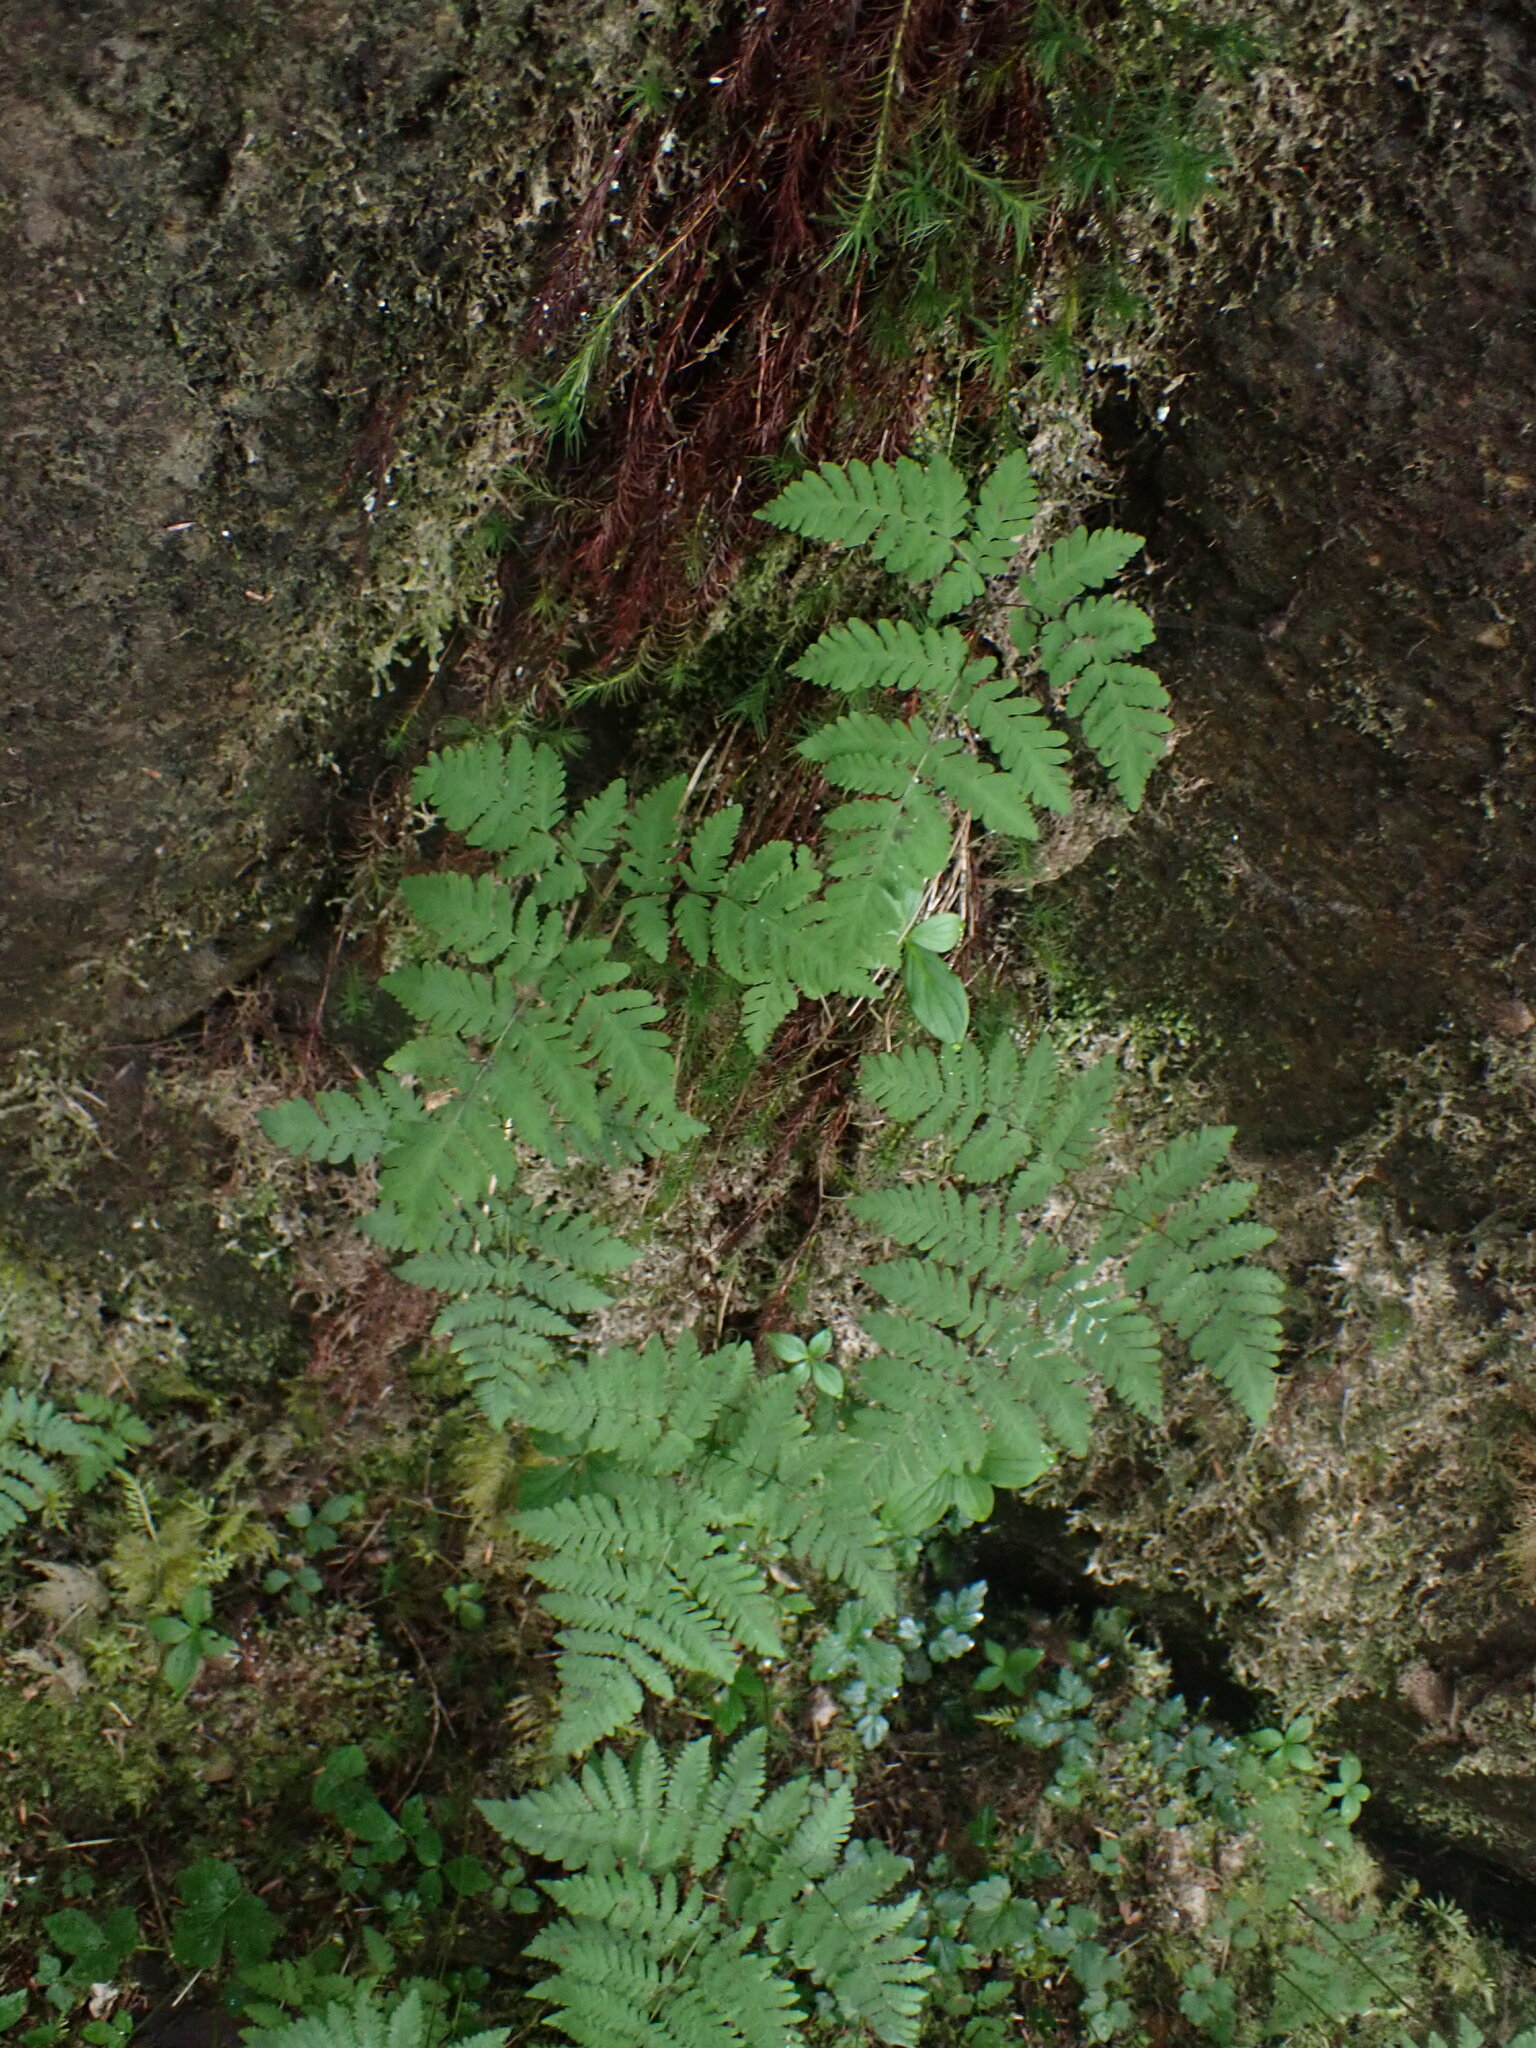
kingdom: Plantae
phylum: Tracheophyta
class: Polypodiopsida
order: Polypodiales
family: Cystopteridaceae
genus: Gymnocarpium
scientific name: Gymnocarpium disjunctum
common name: Western oak fern
